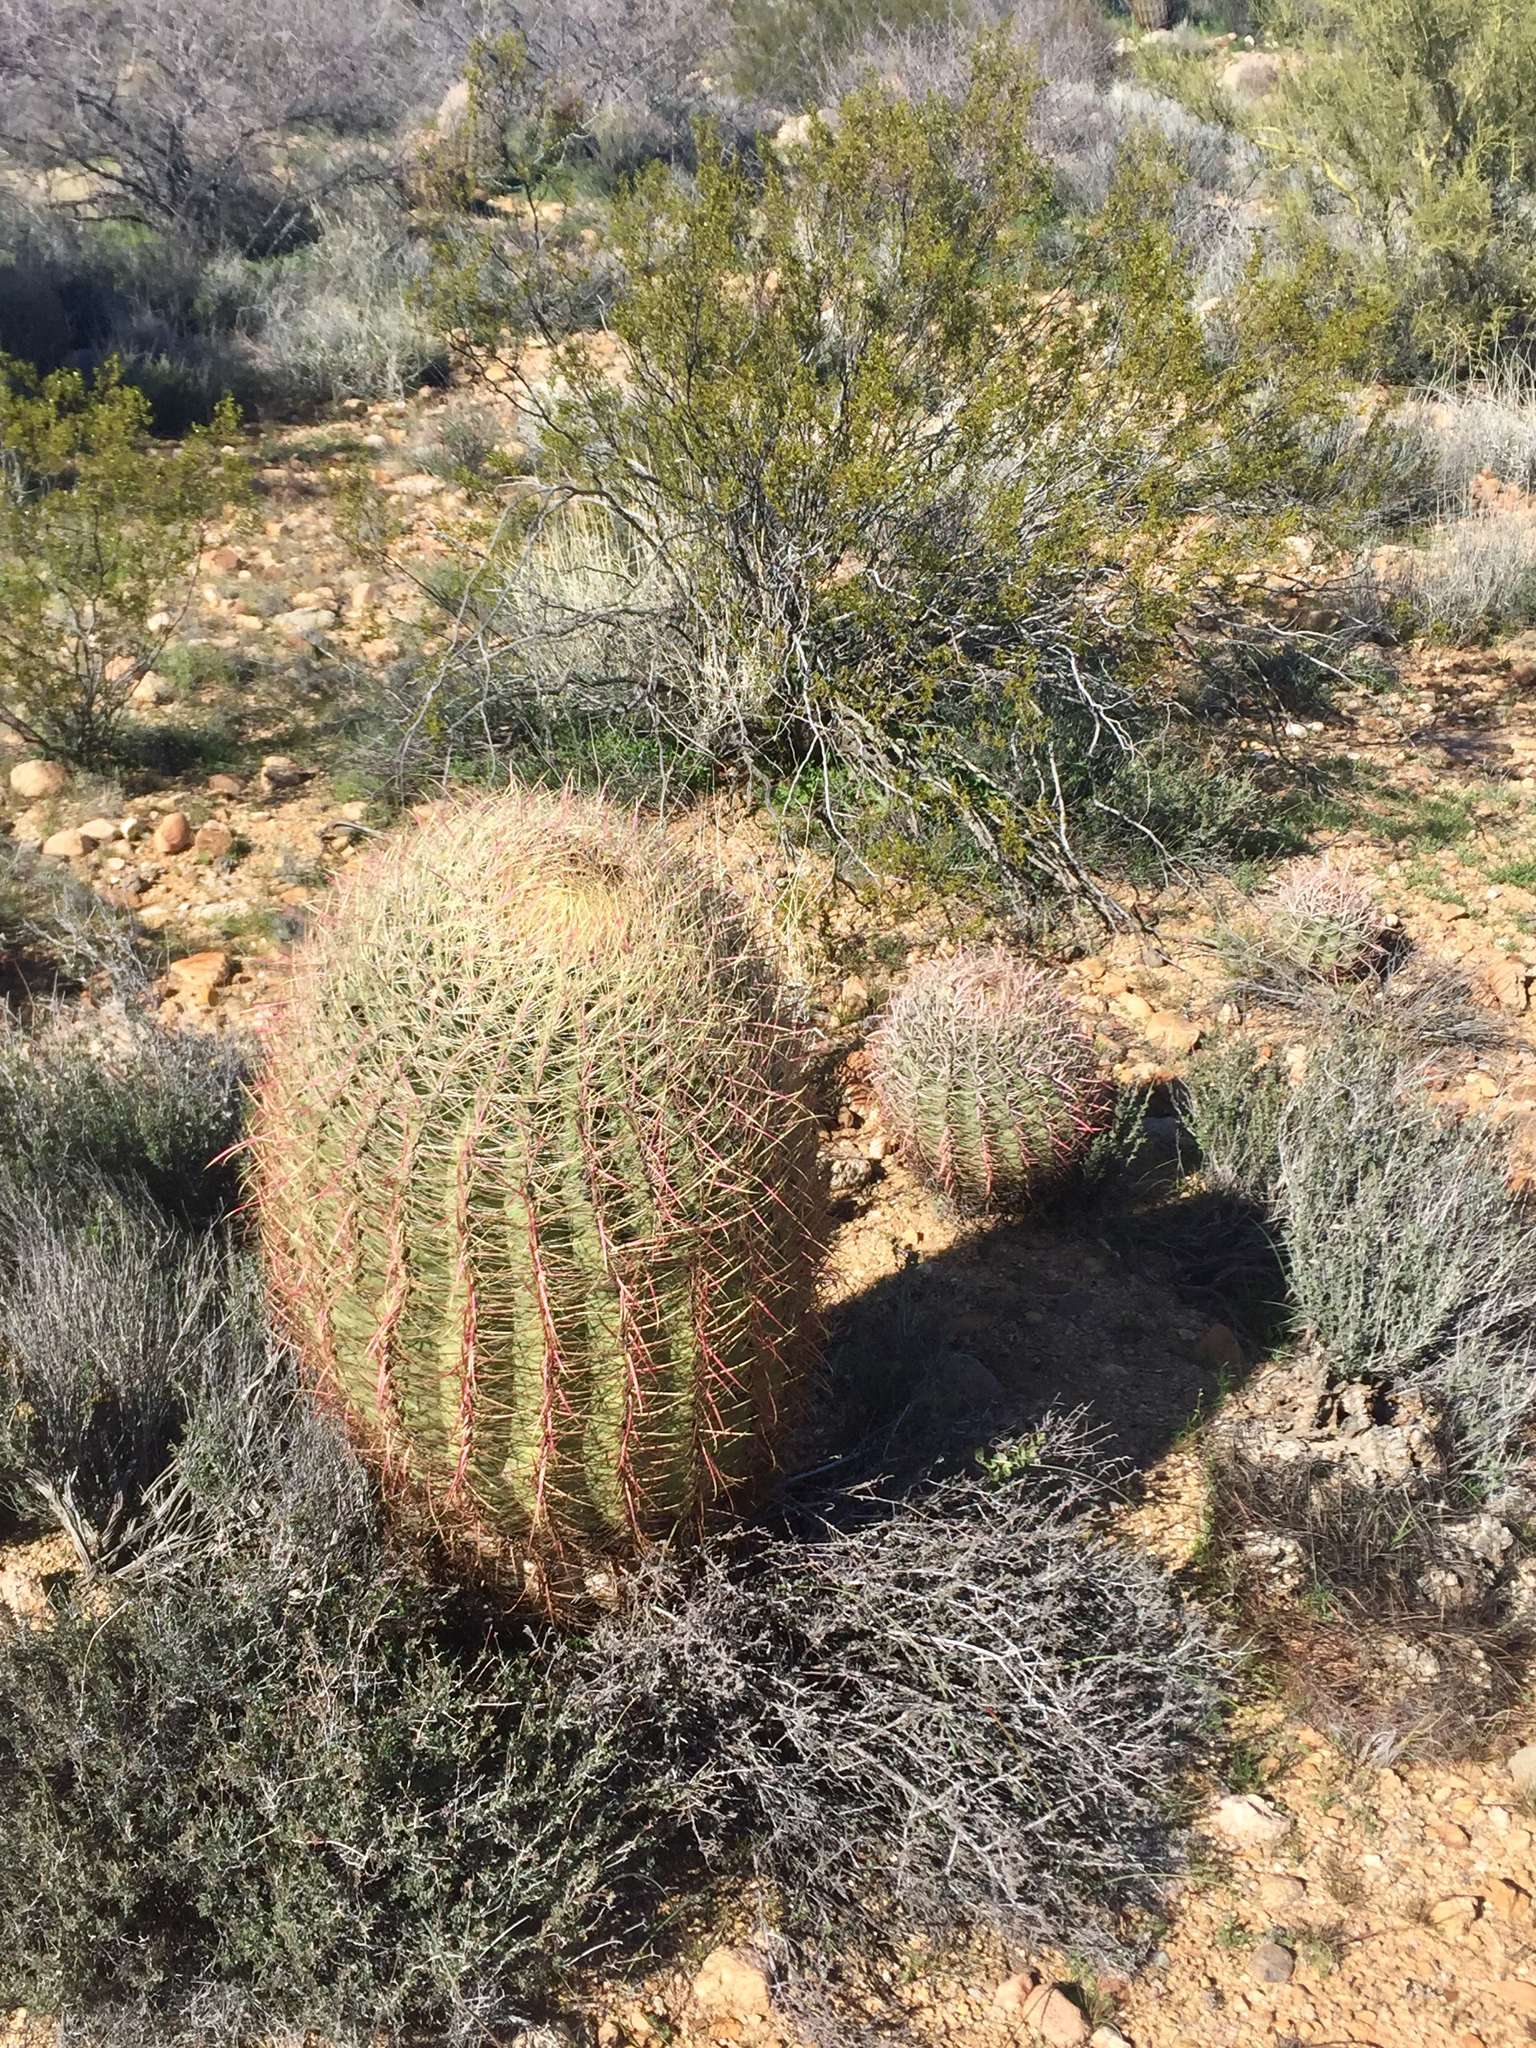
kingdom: Plantae
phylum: Tracheophyta
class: Magnoliopsida
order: Caryophyllales
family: Cactaceae
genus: Ferocactus
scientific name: Ferocactus cylindraceus
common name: California barrel cactus
